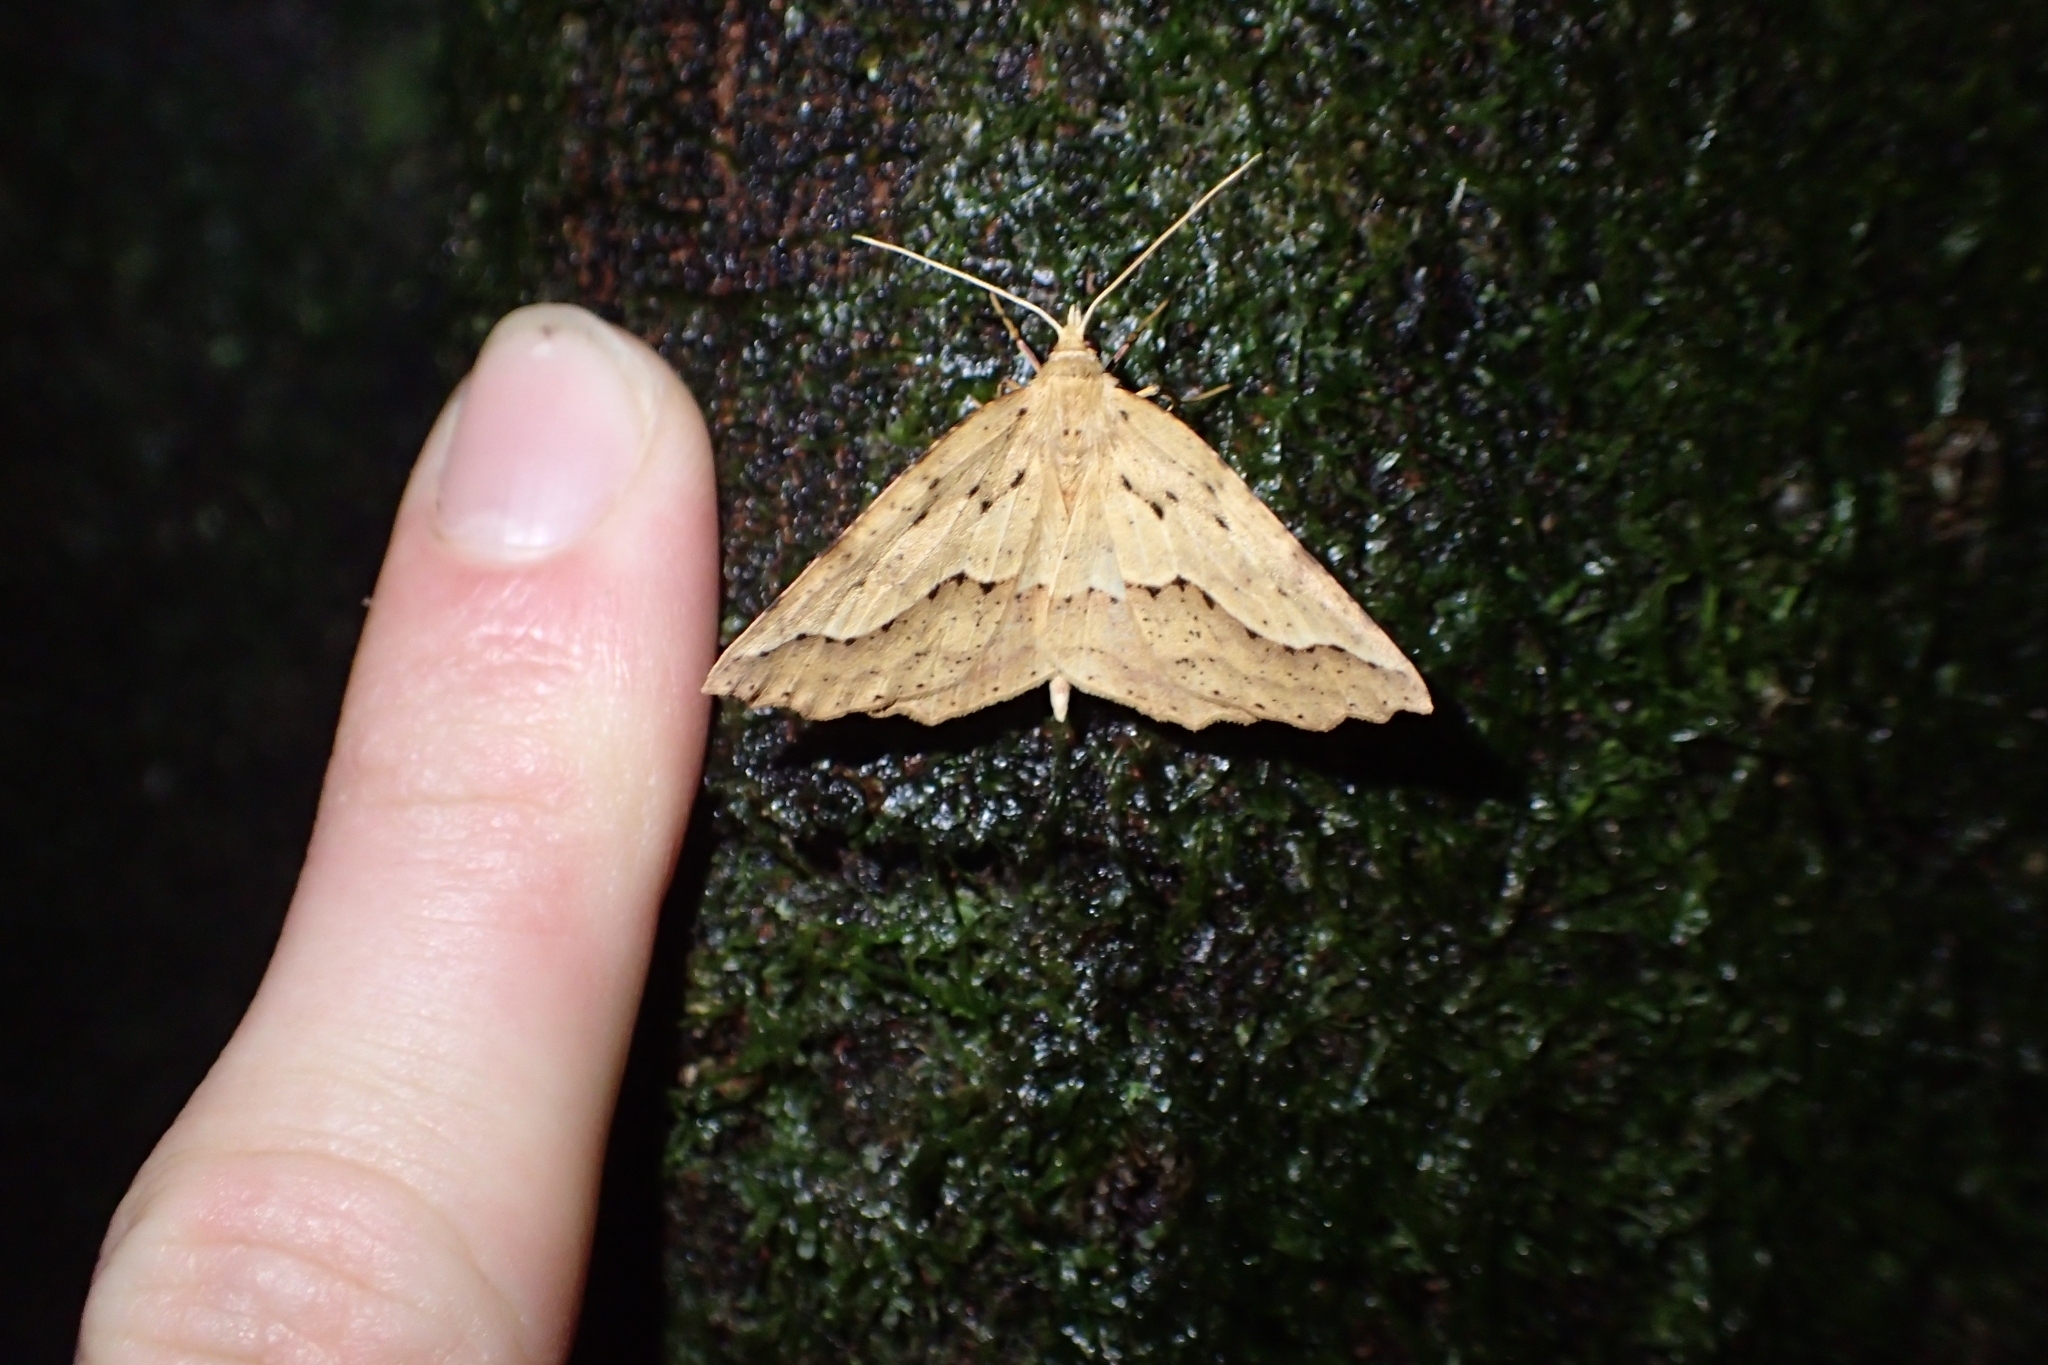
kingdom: Animalia
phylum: Arthropoda
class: Insecta
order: Lepidoptera
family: Geometridae
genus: Ischalis
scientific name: Ischalis variabilis
